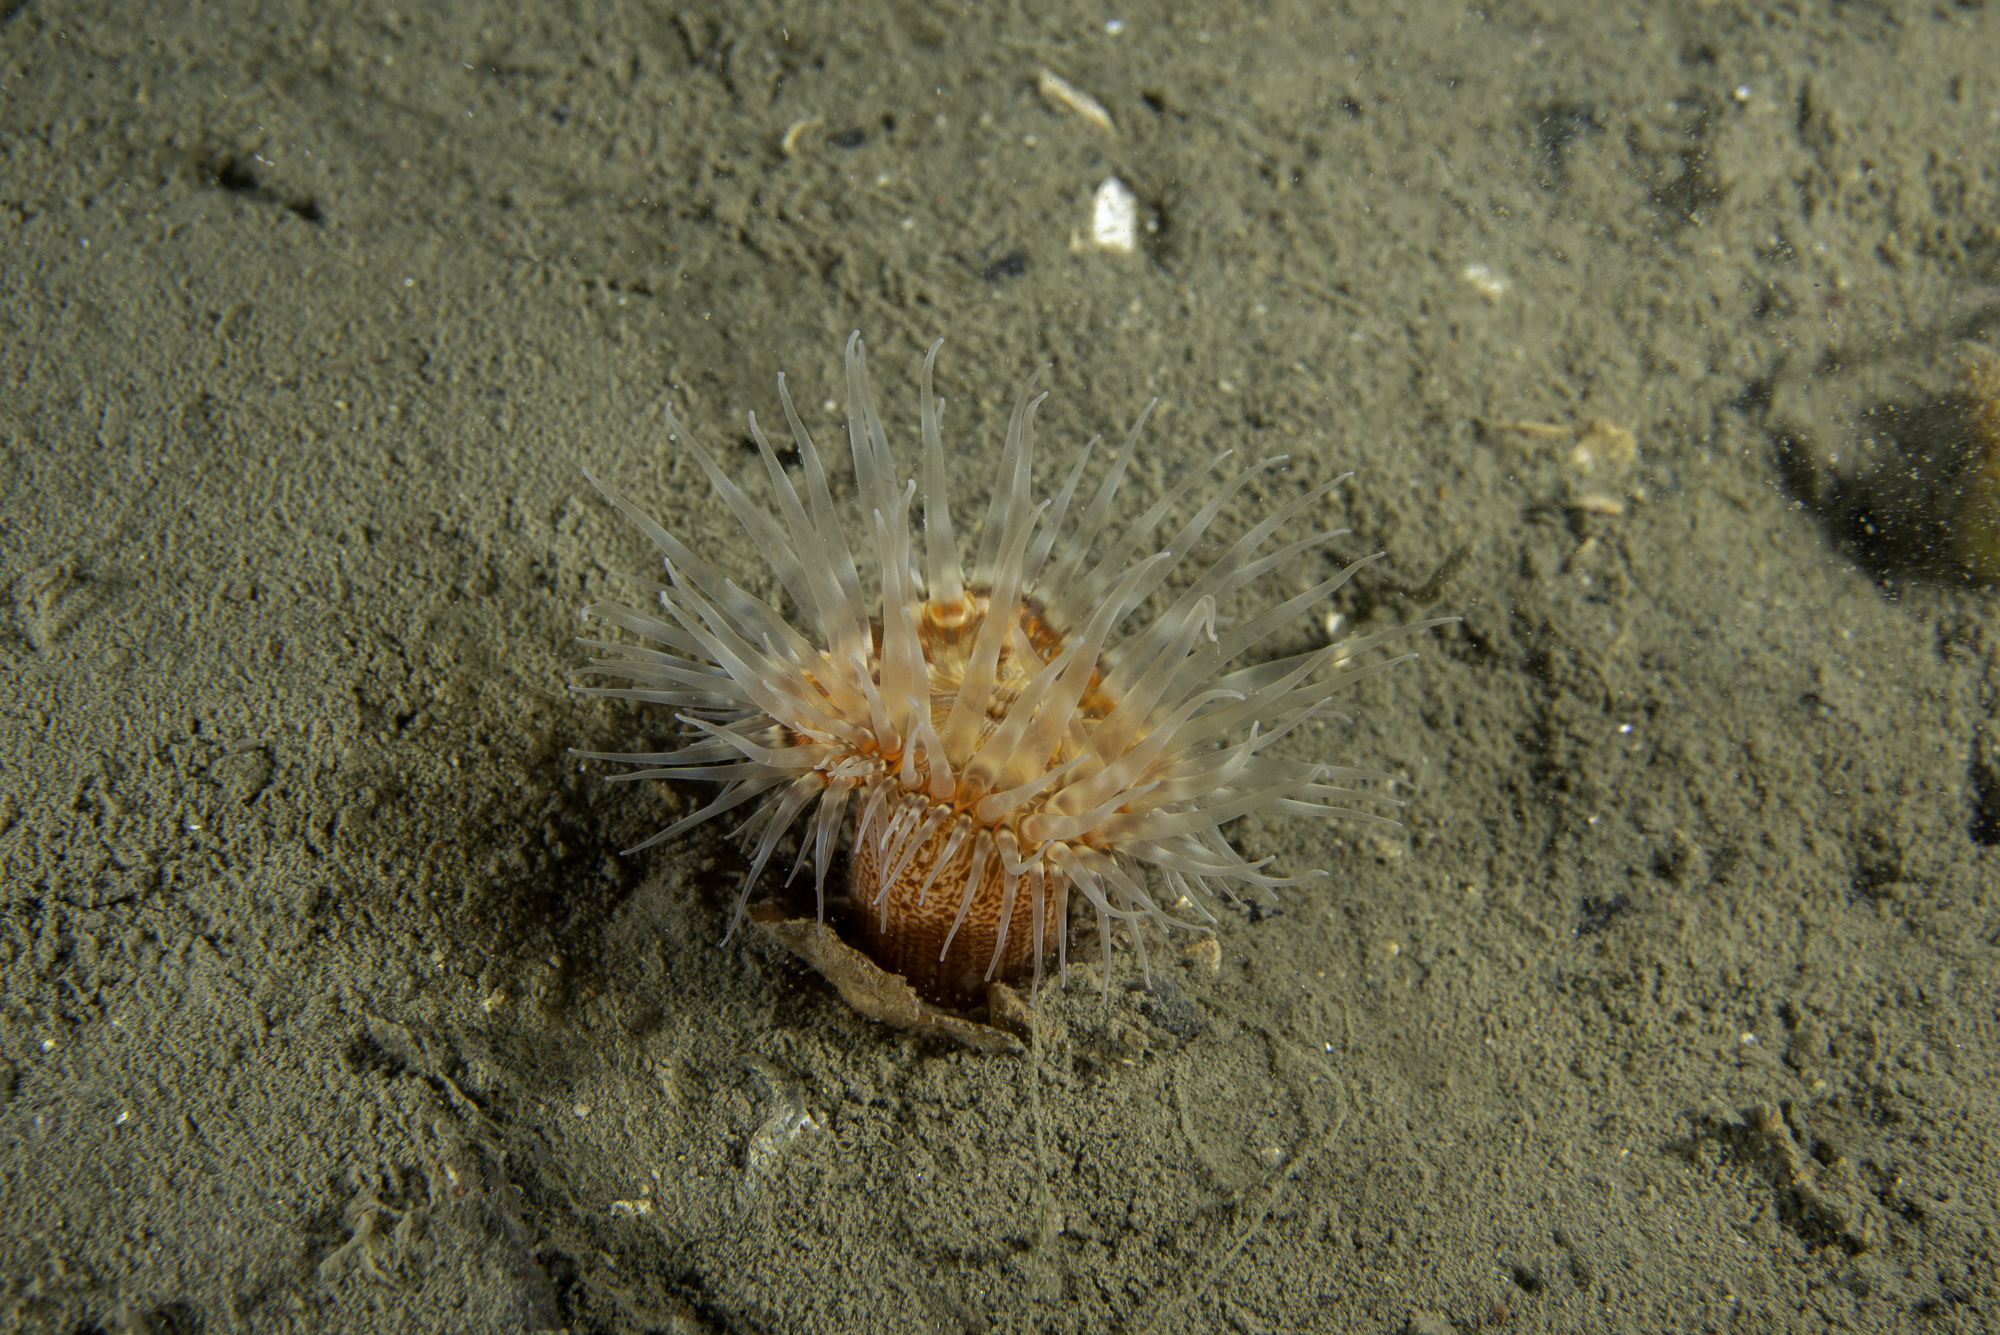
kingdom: Animalia
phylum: Cnidaria
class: Anthozoa
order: Actiniaria
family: Sagartiidae
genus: Sagartia
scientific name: Sagartia lacerata
